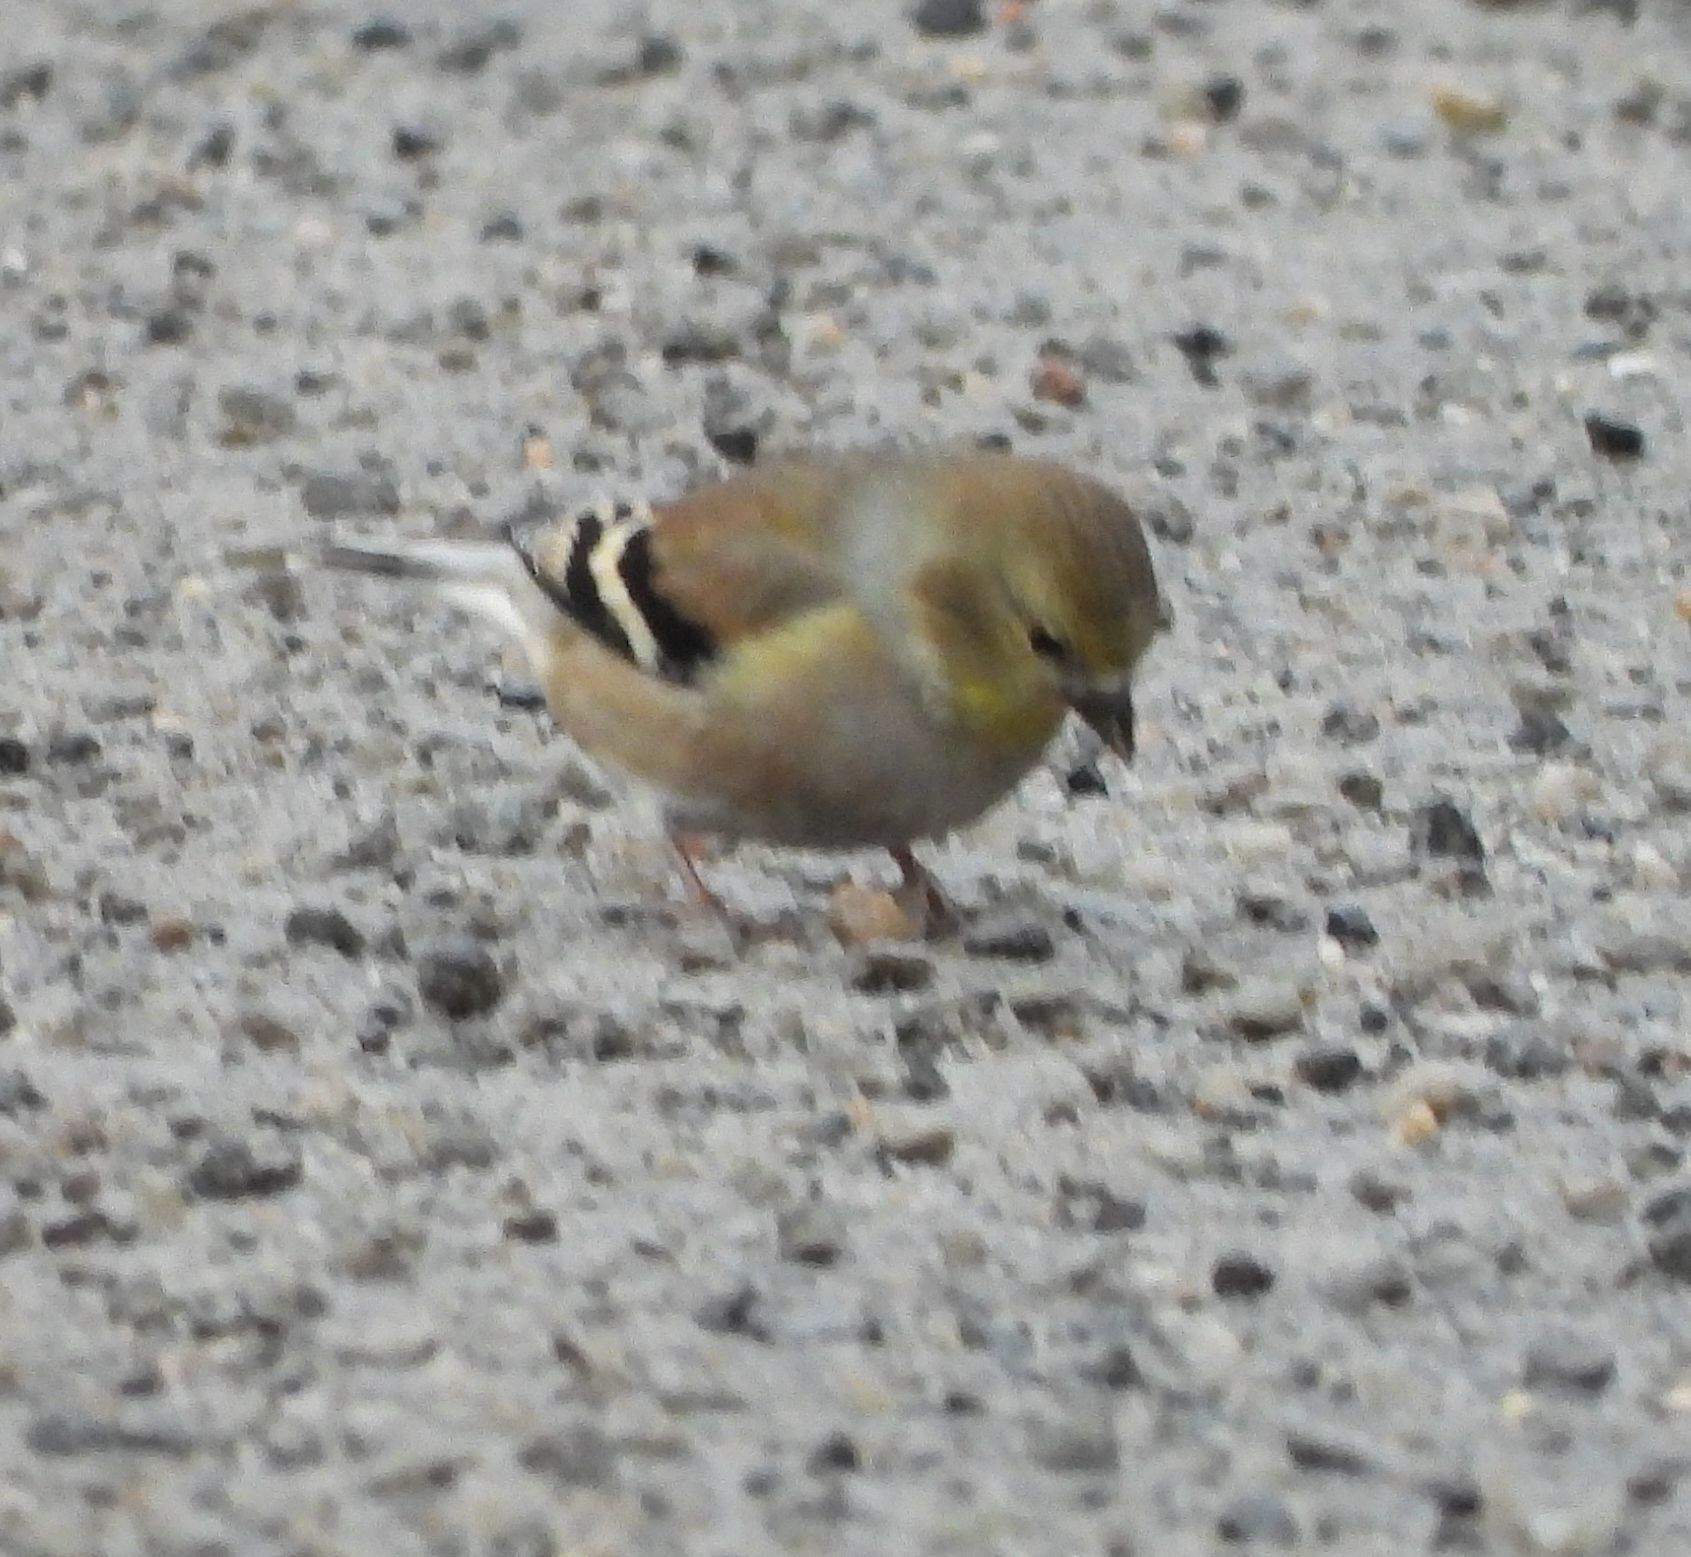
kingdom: Animalia
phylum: Chordata
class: Aves
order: Passeriformes
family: Fringillidae
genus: Spinus
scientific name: Spinus tristis
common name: American goldfinch
